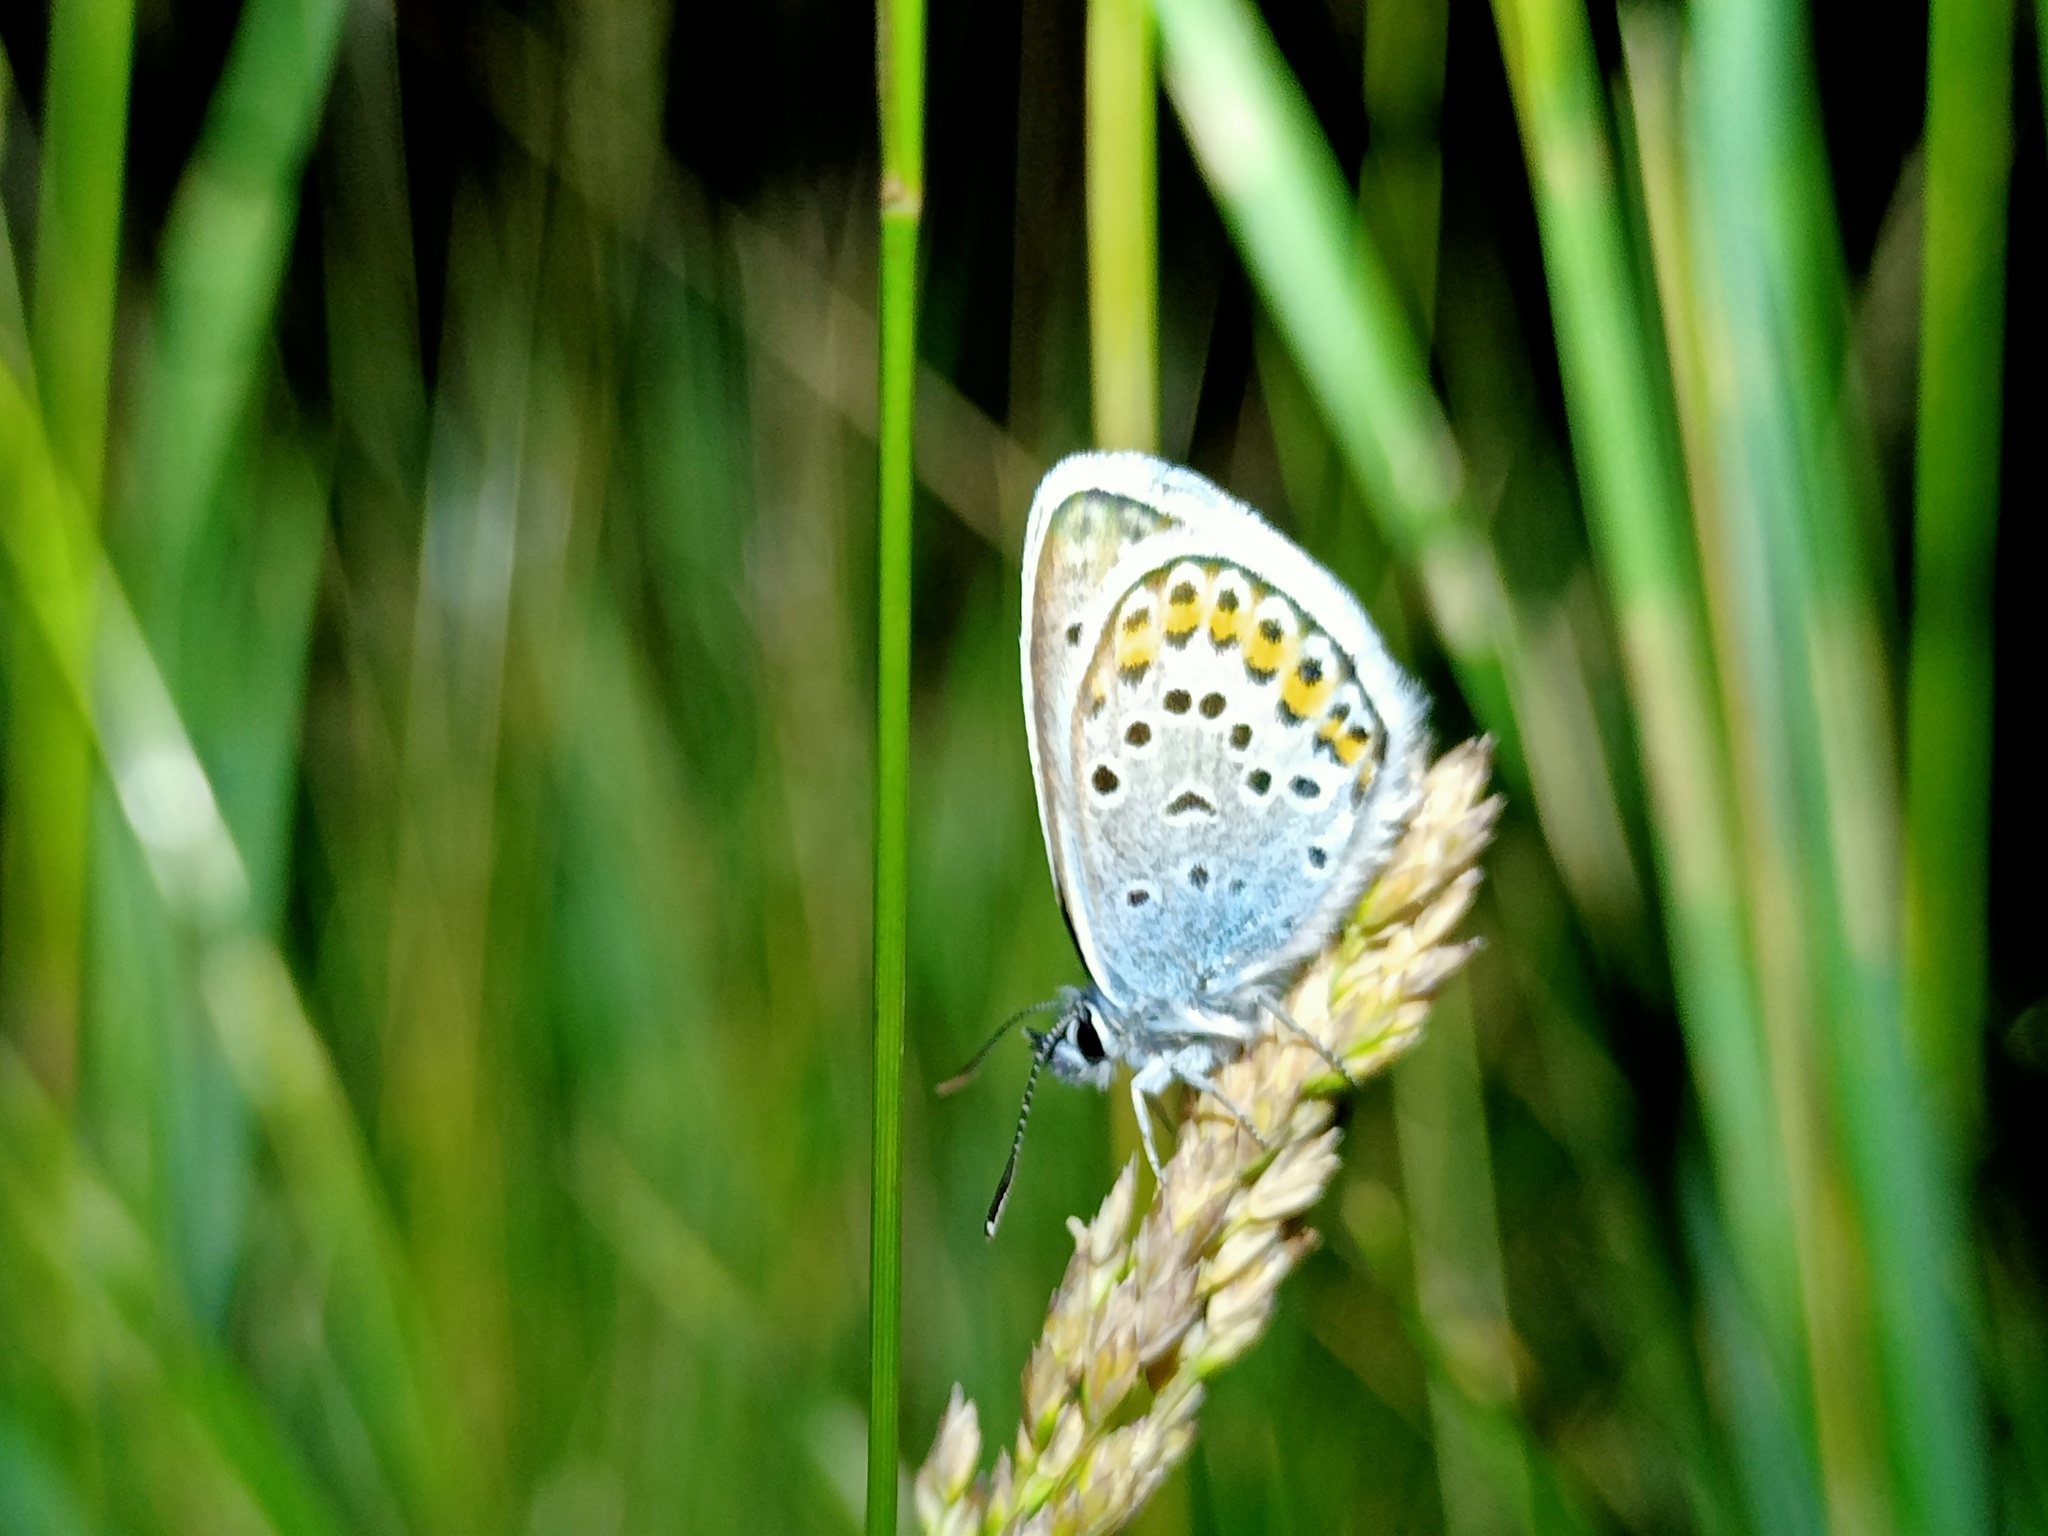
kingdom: Animalia
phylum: Arthropoda
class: Insecta
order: Lepidoptera
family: Lycaenidae
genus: Plebejus
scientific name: Plebejus argus
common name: Silver-studded blue
